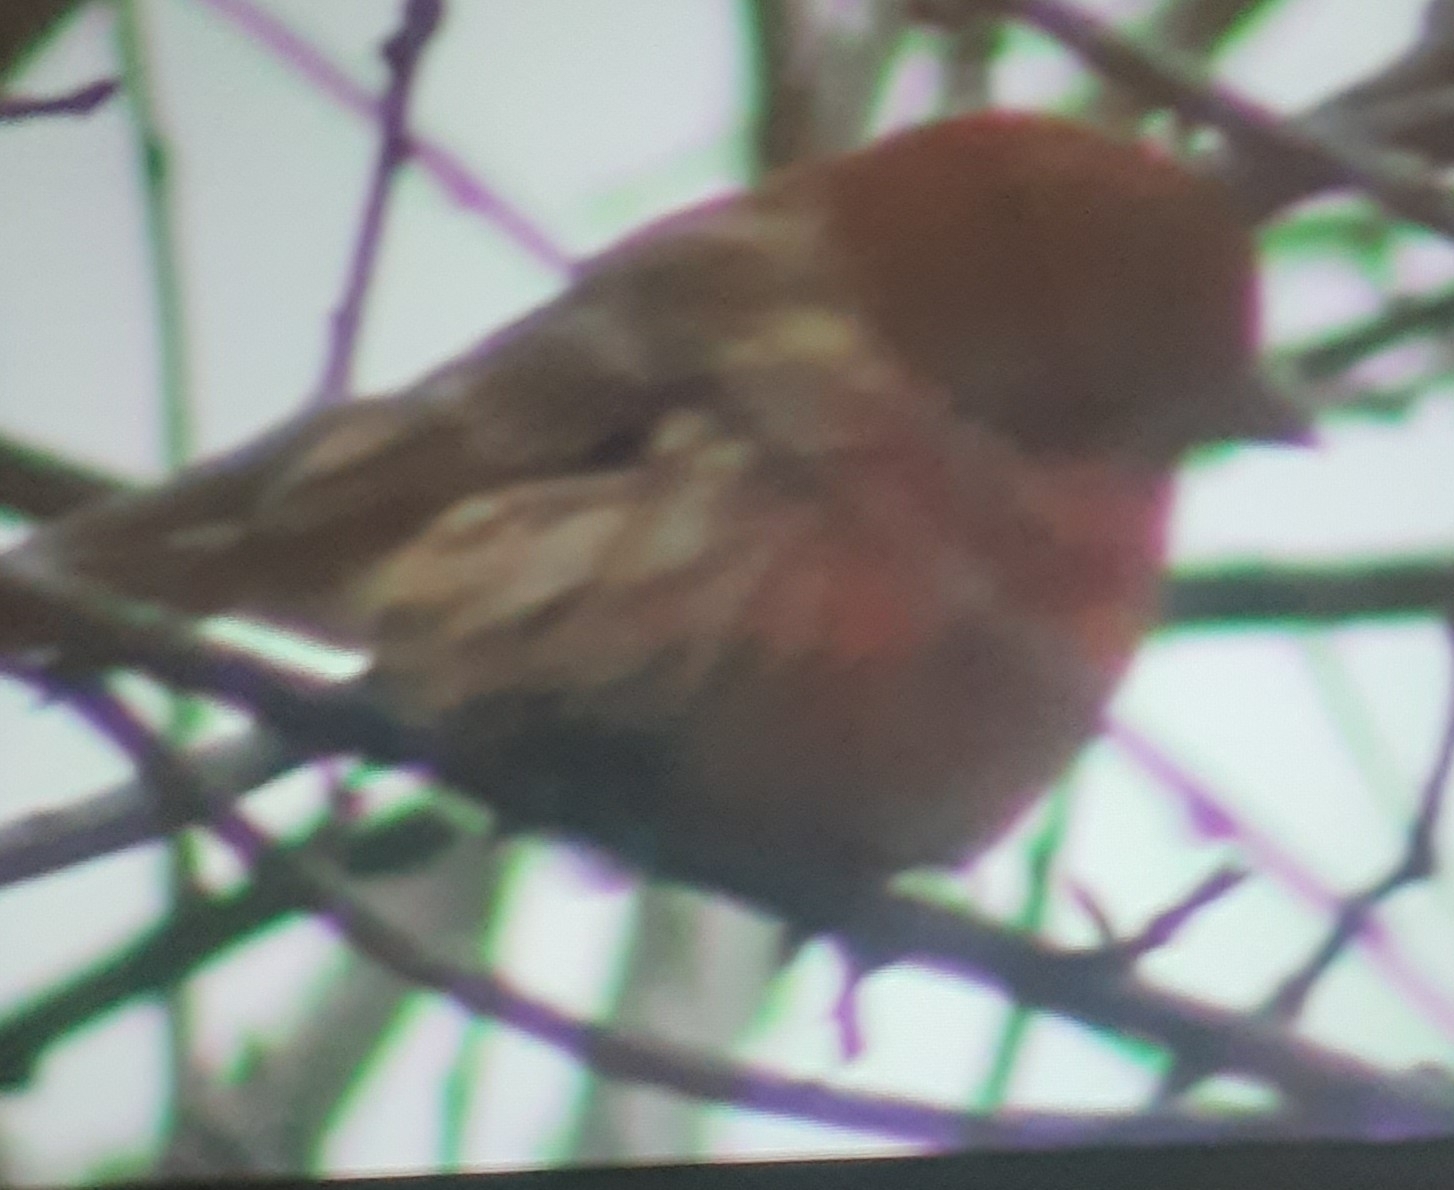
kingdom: Animalia
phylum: Chordata
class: Aves
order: Passeriformes
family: Fringillidae
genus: Haemorhous
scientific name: Haemorhous mexicanus
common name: House finch
